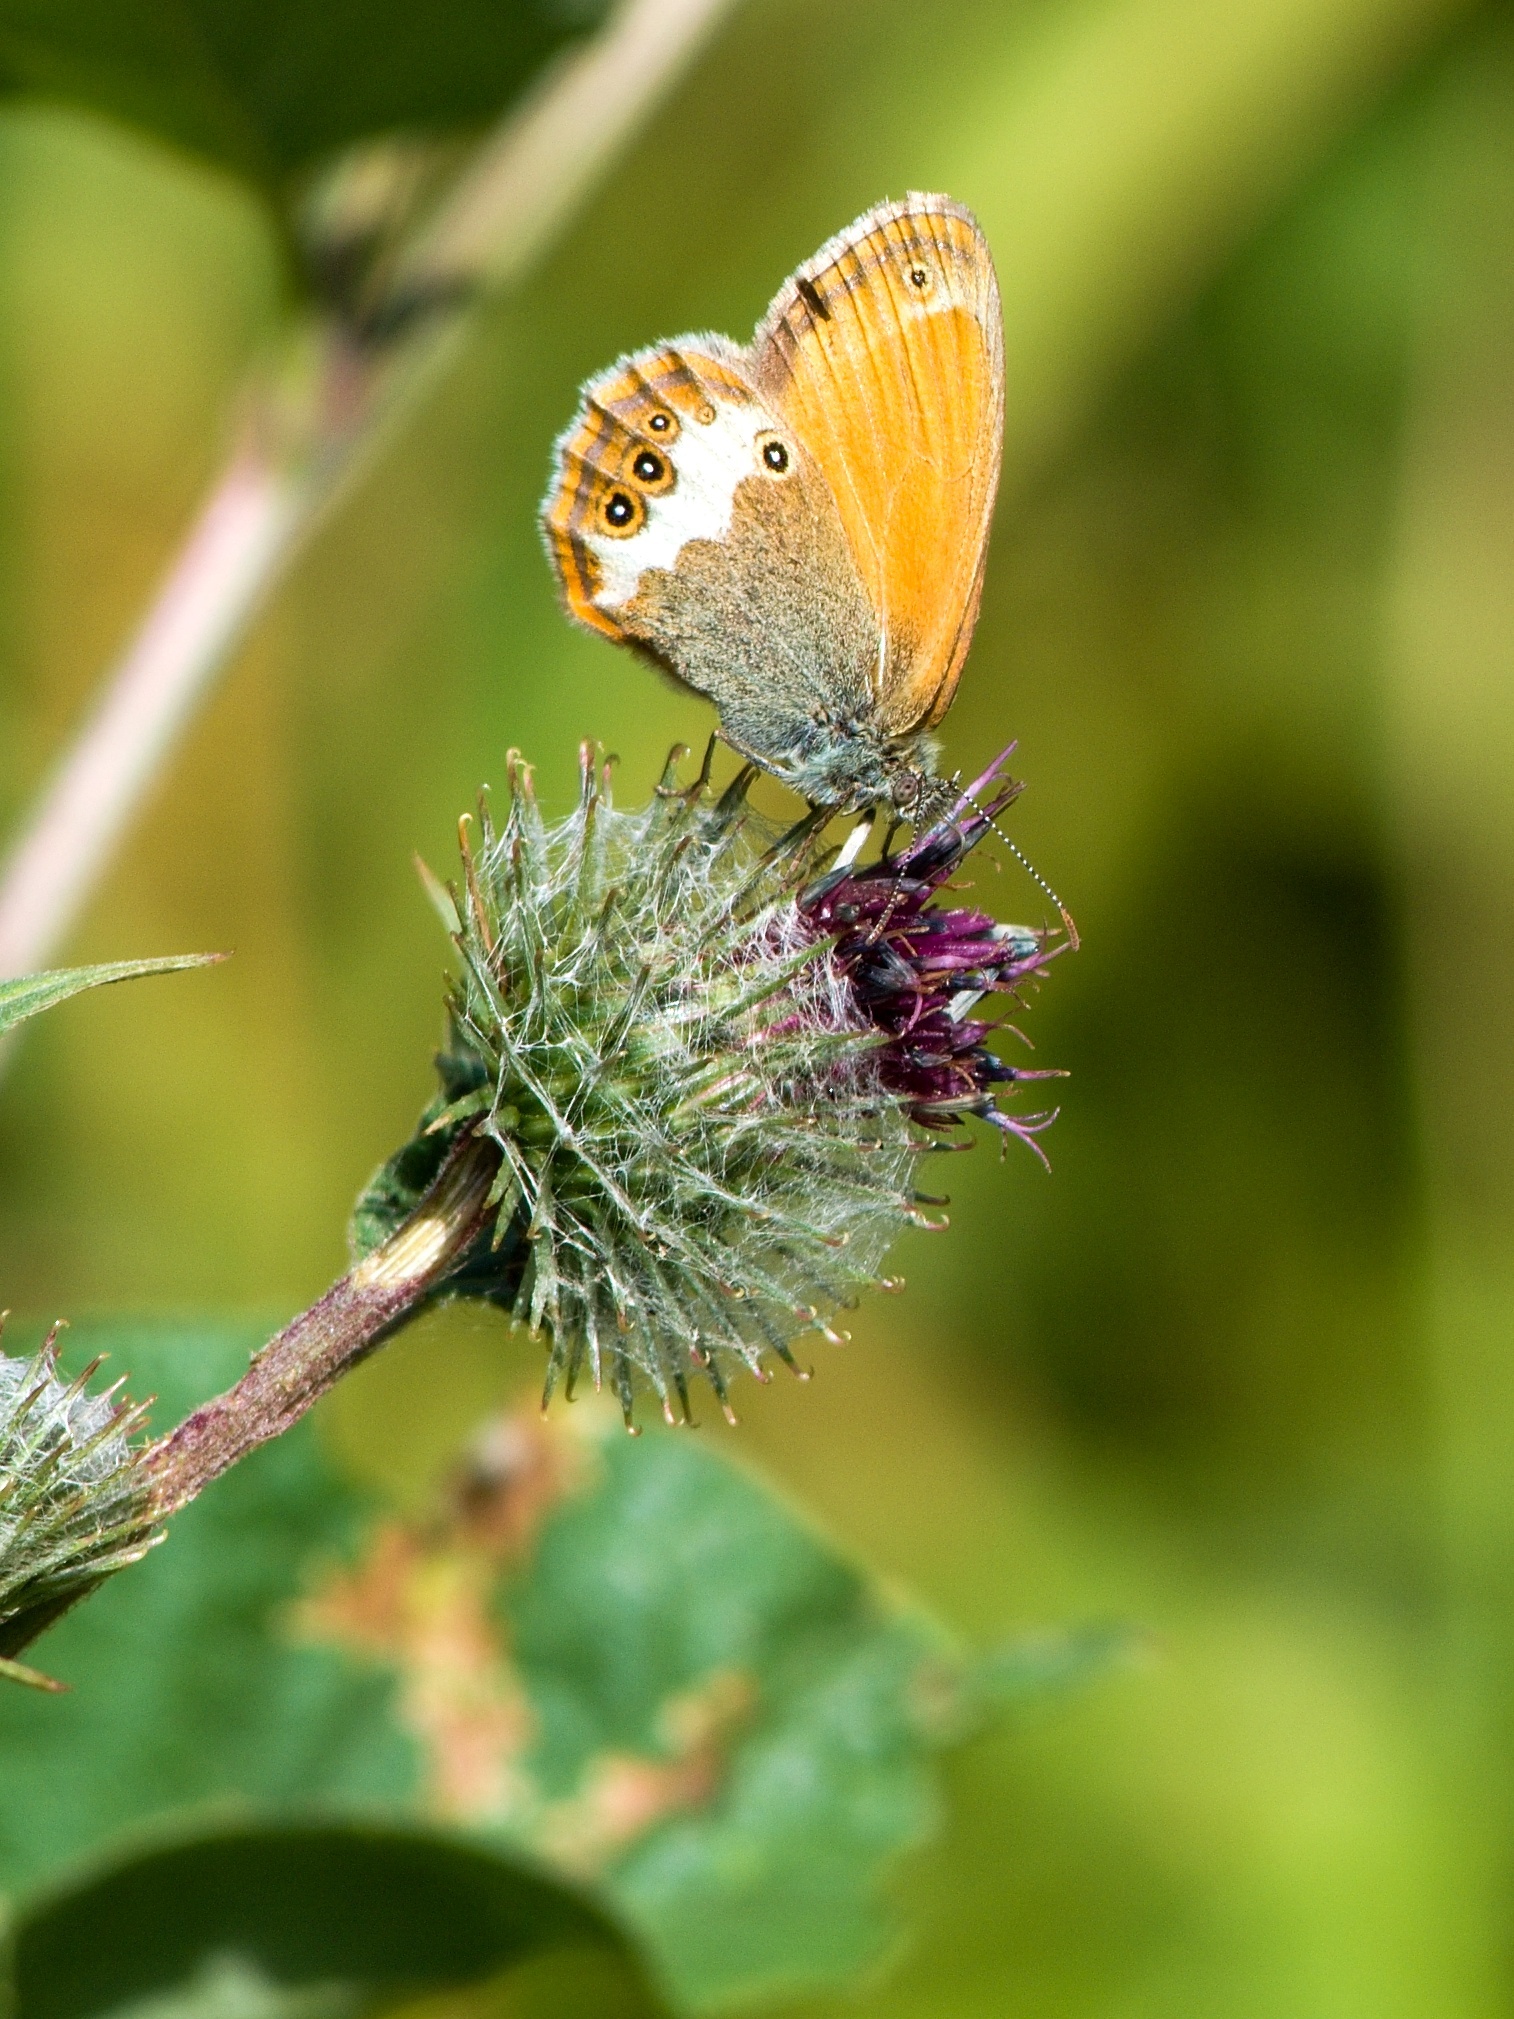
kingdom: Animalia
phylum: Arthropoda
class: Insecta
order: Lepidoptera
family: Nymphalidae
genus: Coenonympha
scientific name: Coenonympha arcania
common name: Pearly heath
